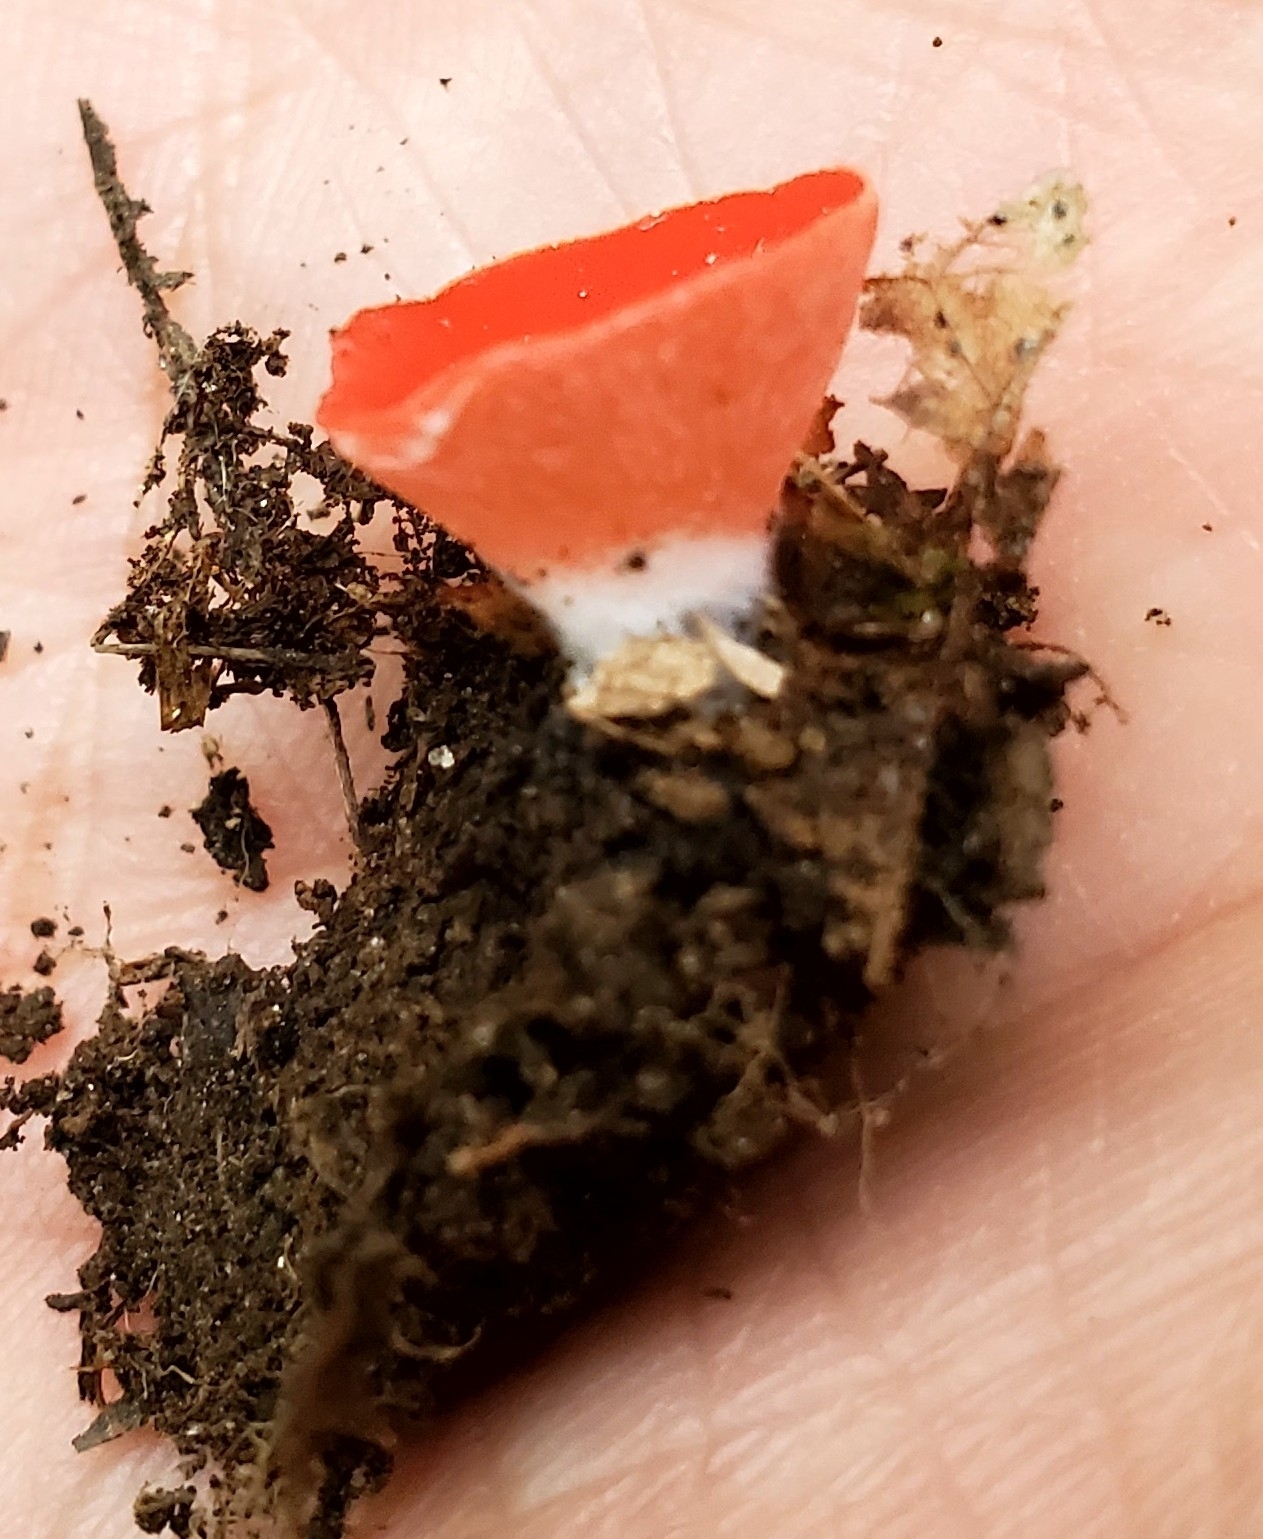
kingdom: Fungi
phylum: Ascomycota
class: Pezizomycetes
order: Pezizales
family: Sarcoscyphaceae
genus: Sarcoscypha
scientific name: Sarcoscypha occidentalis
